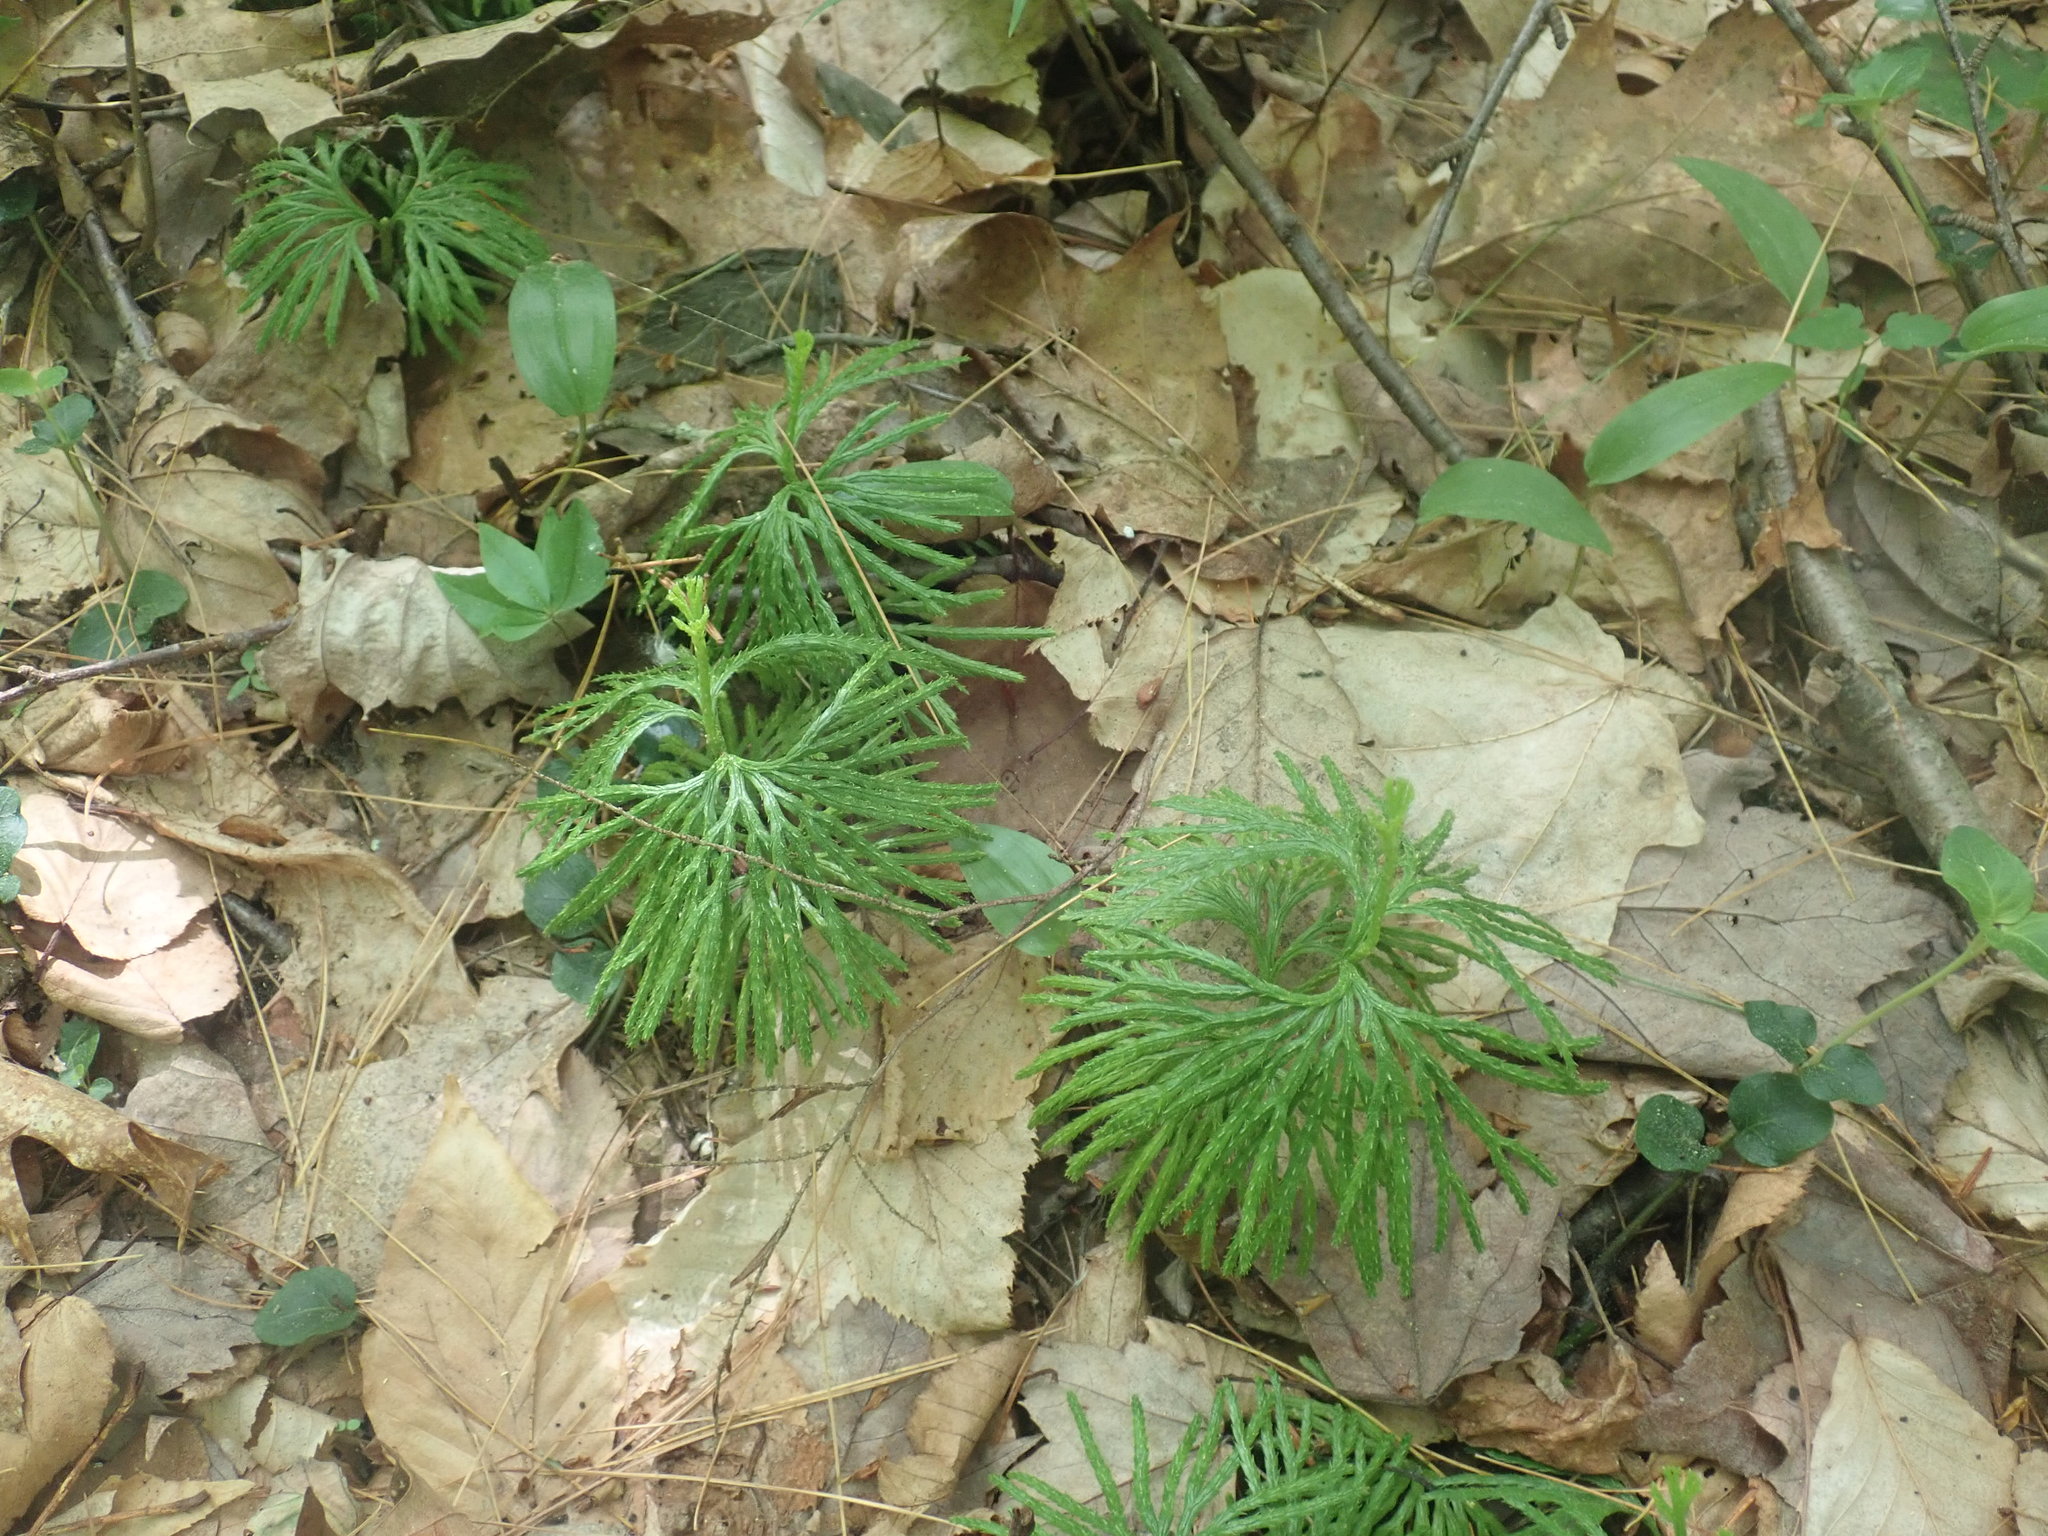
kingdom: Plantae
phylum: Tracheophyta
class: Lycopodiopsida
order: Lycopodiales
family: Lycopodiaceae
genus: Diphasiastrum
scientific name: Diphasiastrum digitatum
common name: Southern running-pine
